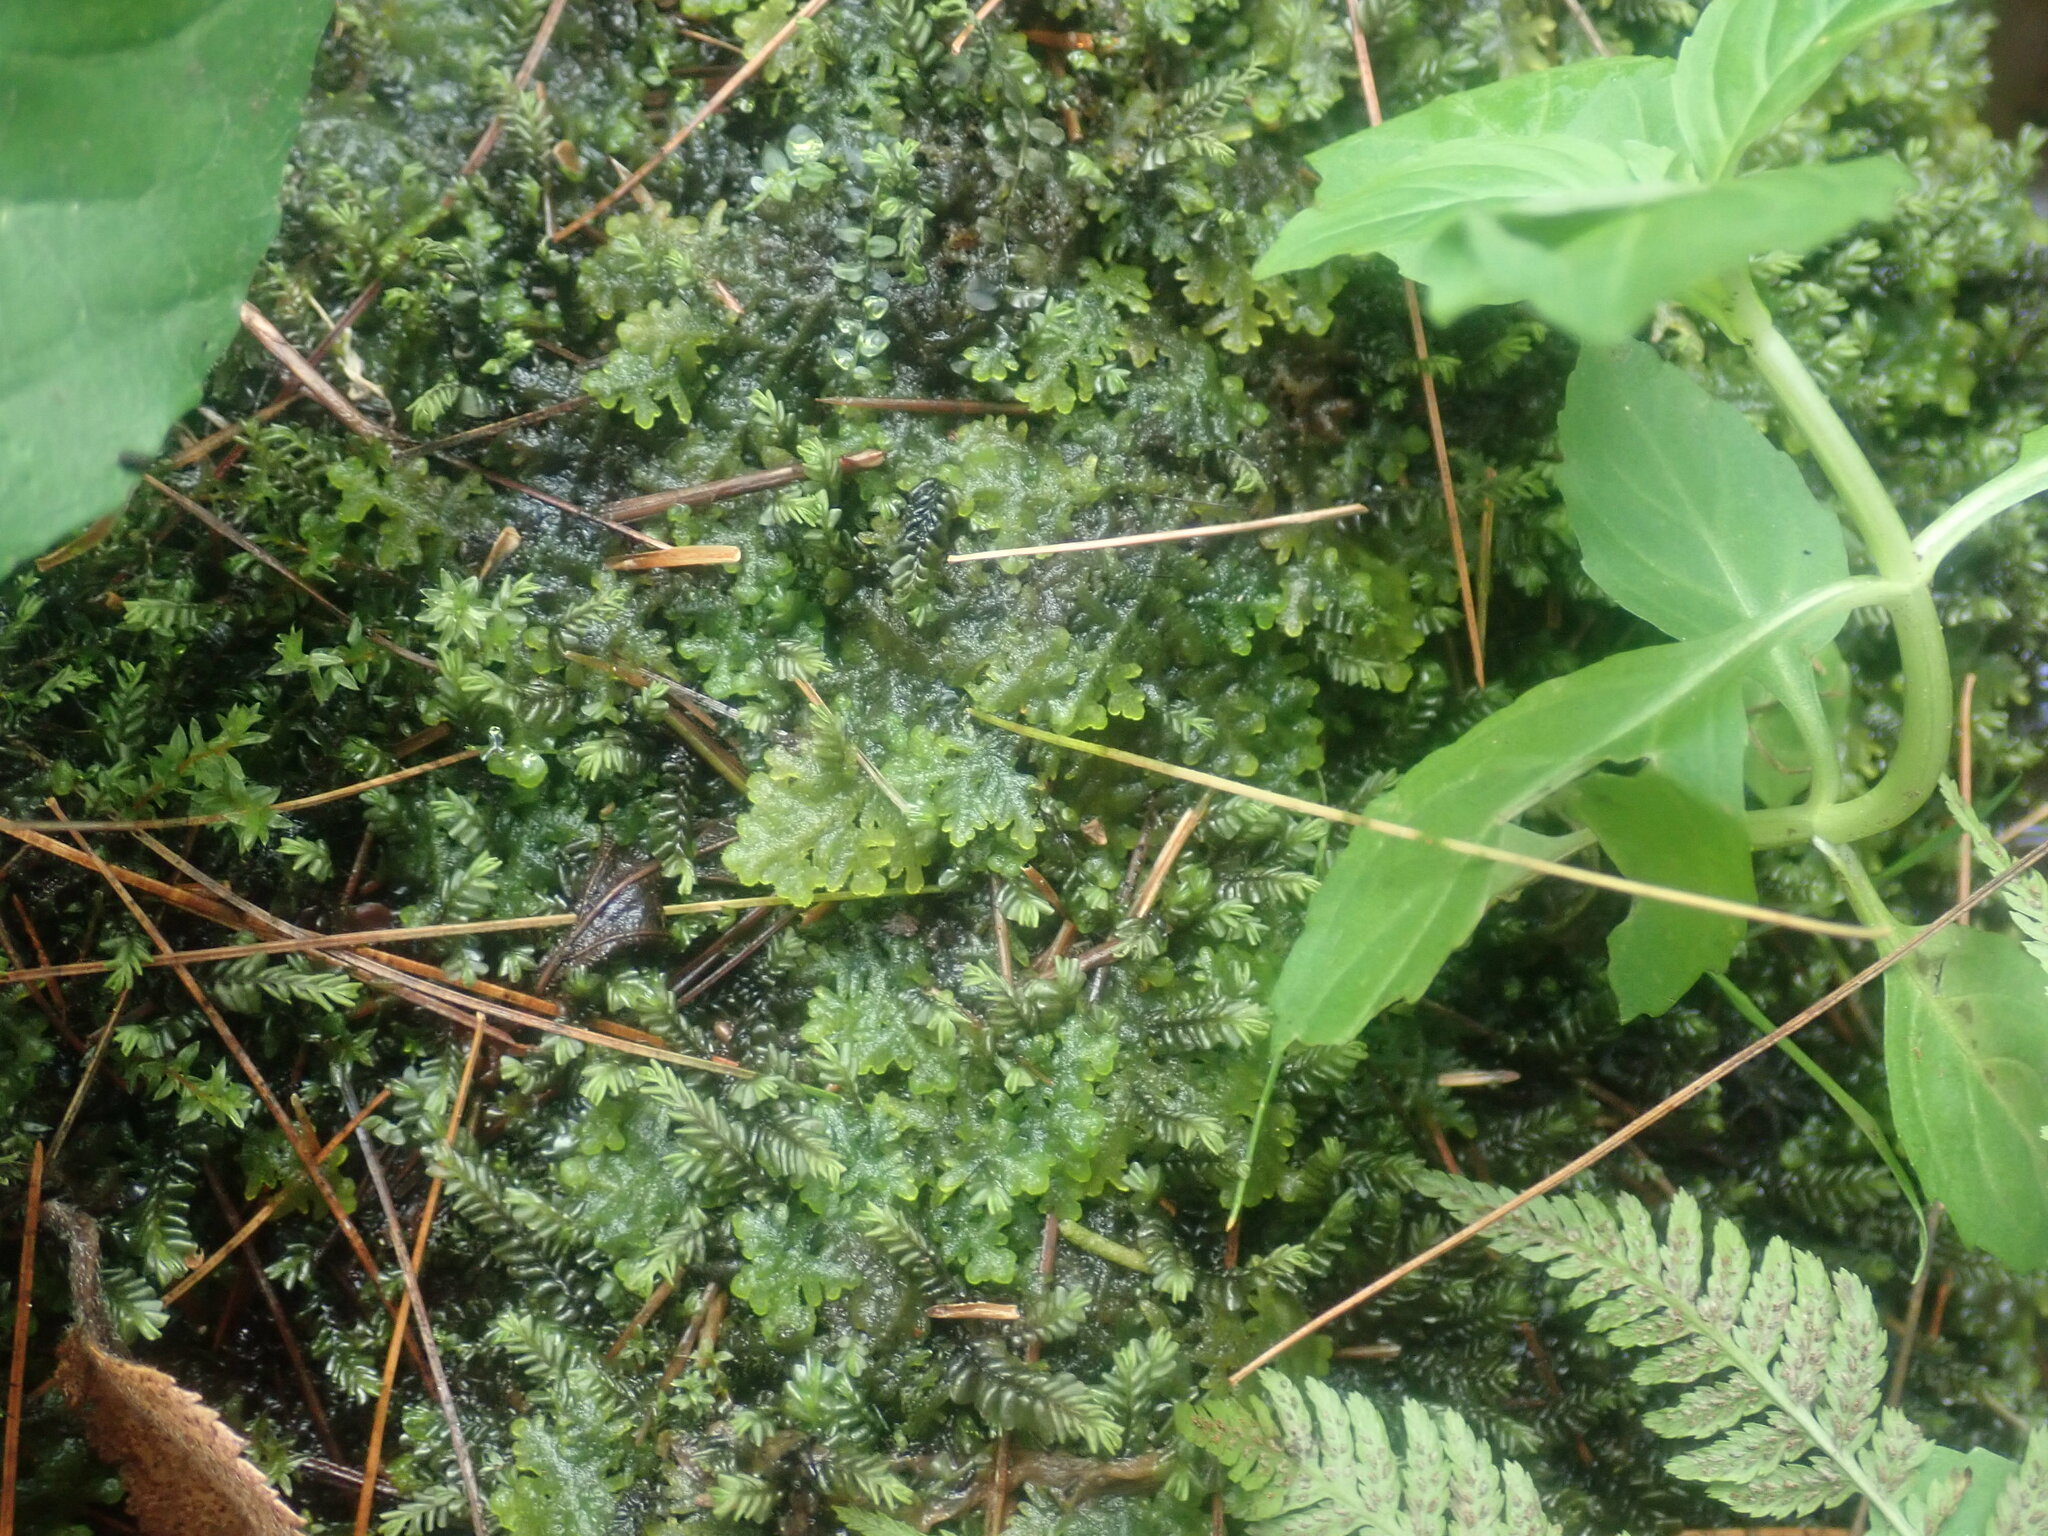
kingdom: Plantae
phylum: Marchantiophyta
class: Jungermanniopsida
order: Jungermanniales
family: Trichocoleaceae
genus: Trichocolea
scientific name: Trichocolea tomentella
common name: Woolly liverwort
